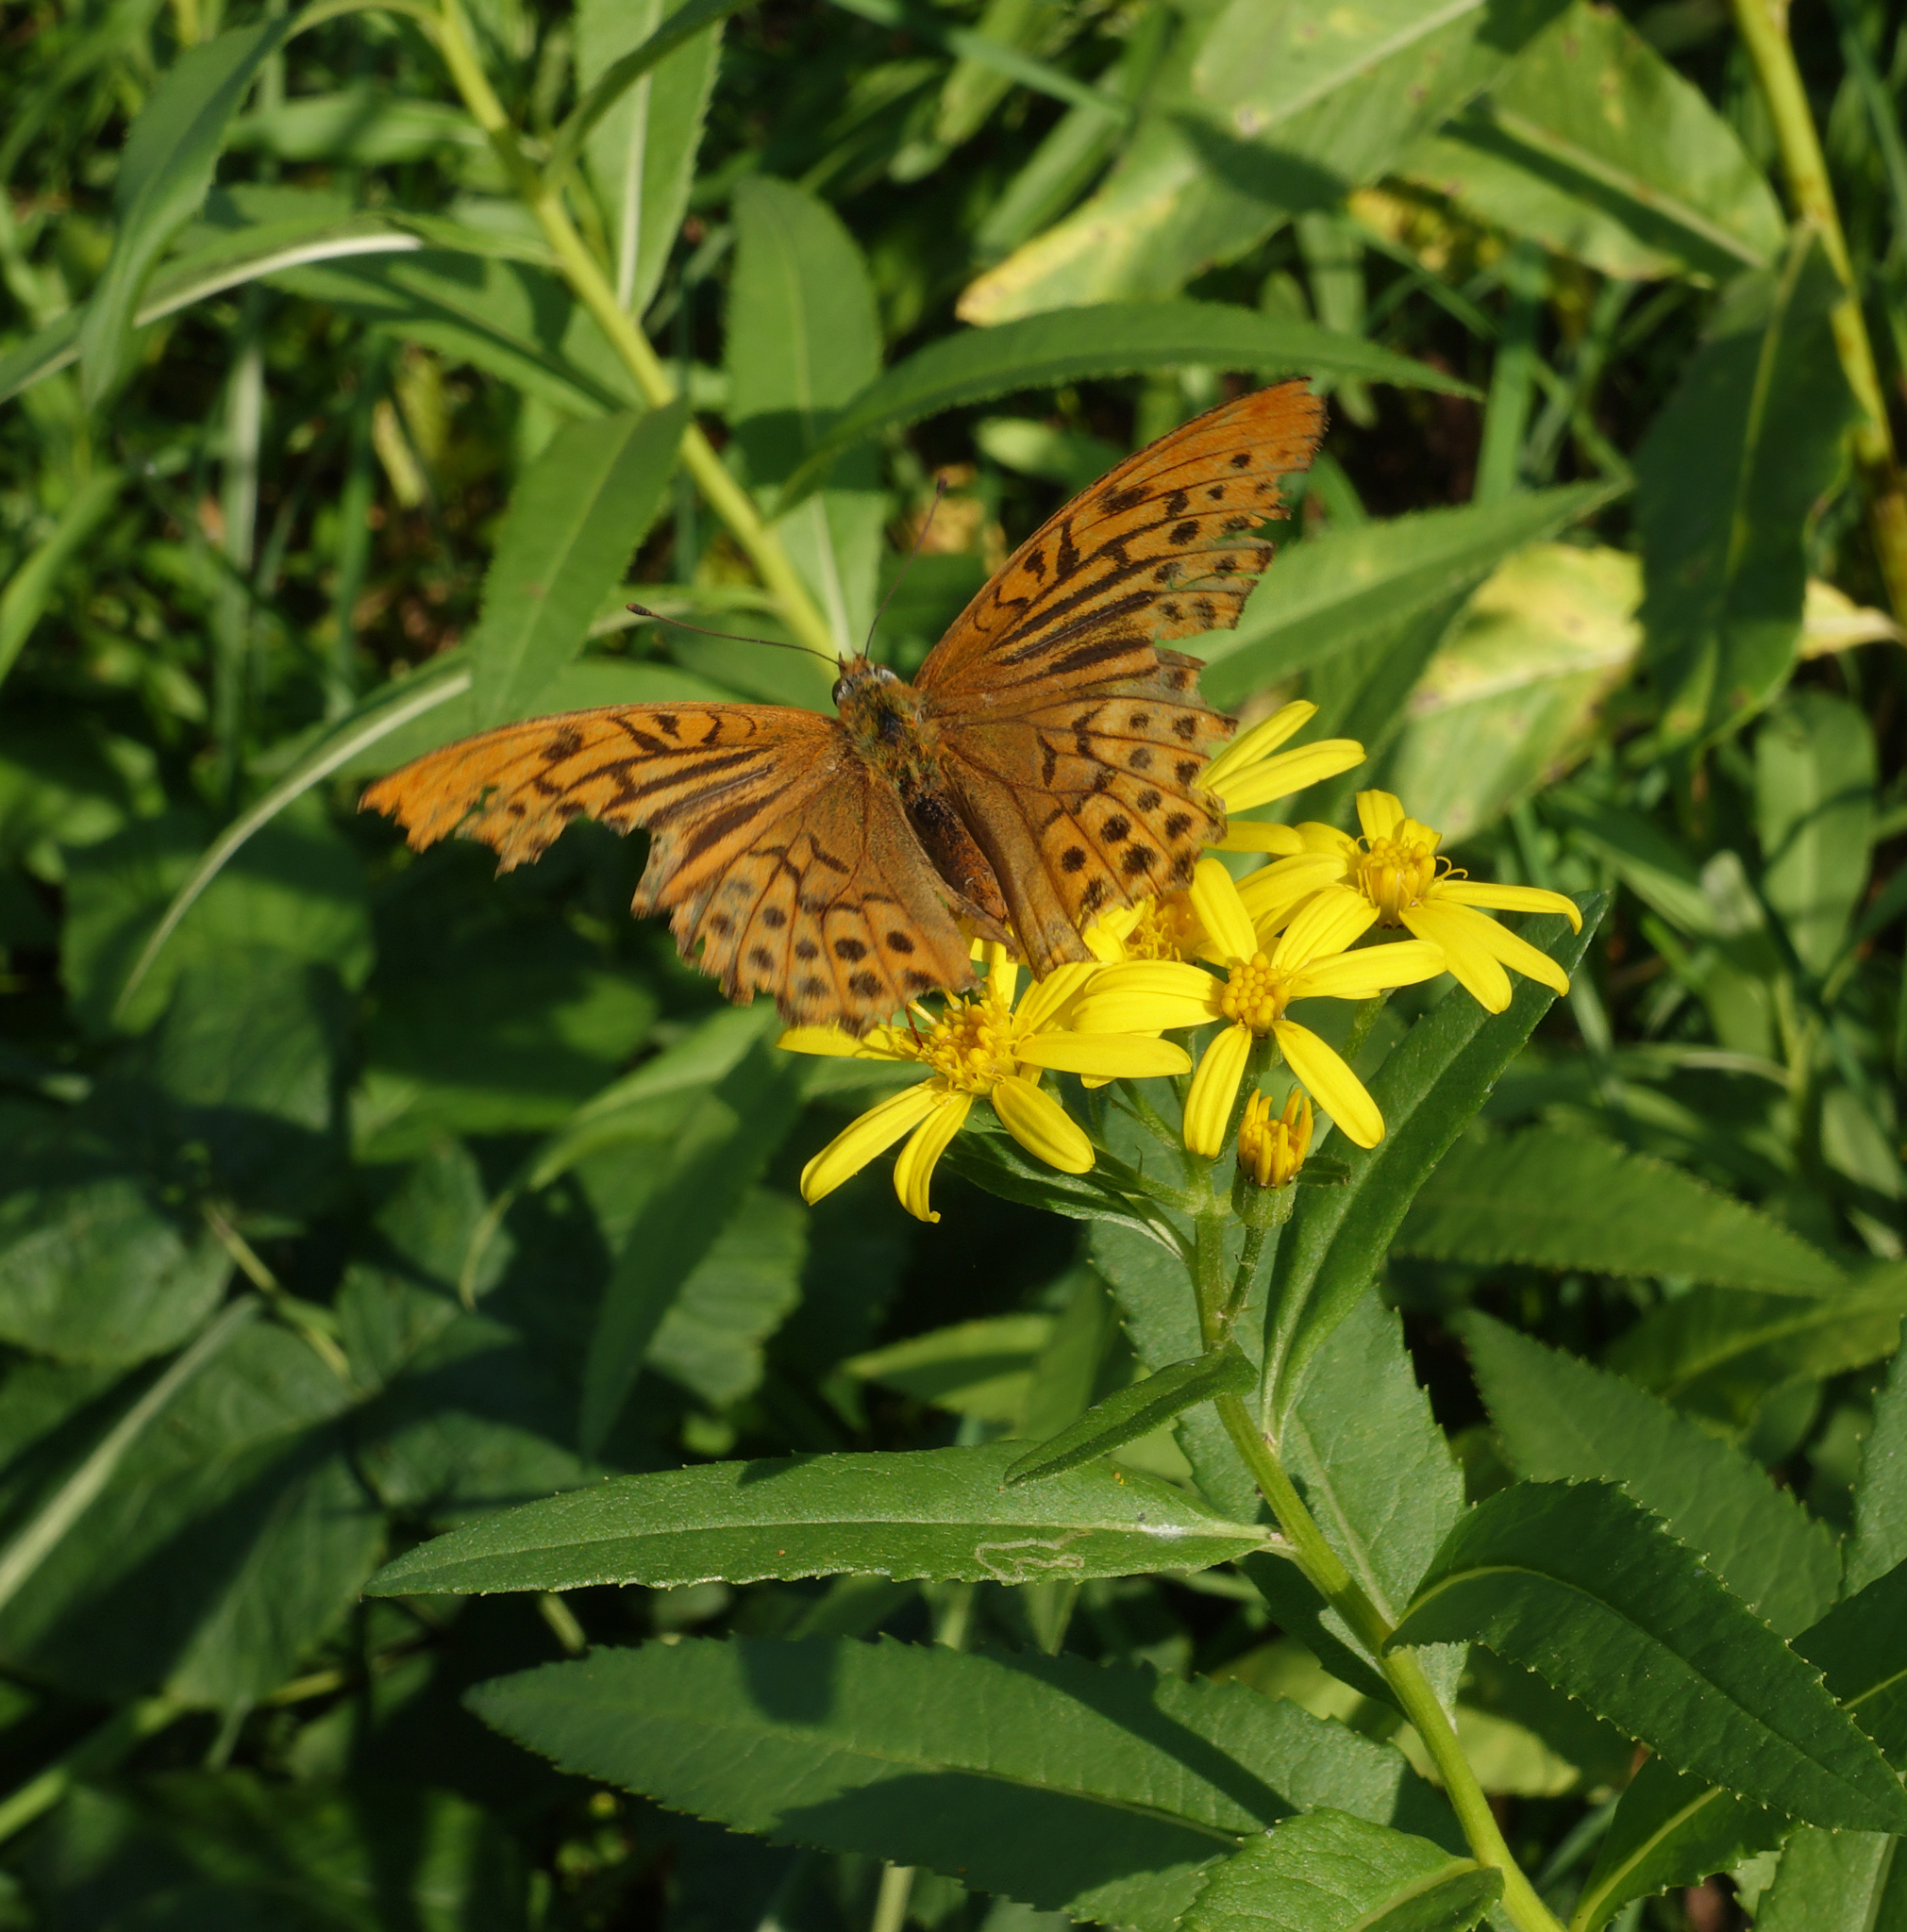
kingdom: Animalia
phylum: Arthropoda
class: Insecta
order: Lepidoptera
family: Nymphalidae
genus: Argynnis
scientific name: Argynnis paphia
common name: Silver-washed fritillary
